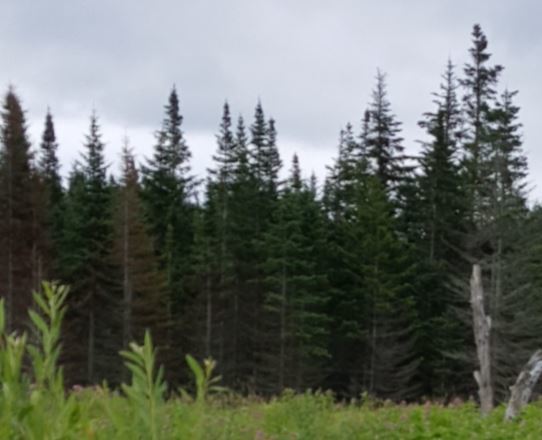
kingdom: Plantae
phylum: Tracheophyta
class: Pinopsida
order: Pinales
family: Pinaceae
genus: Abies
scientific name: Abies balsamea
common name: Balsam fir
